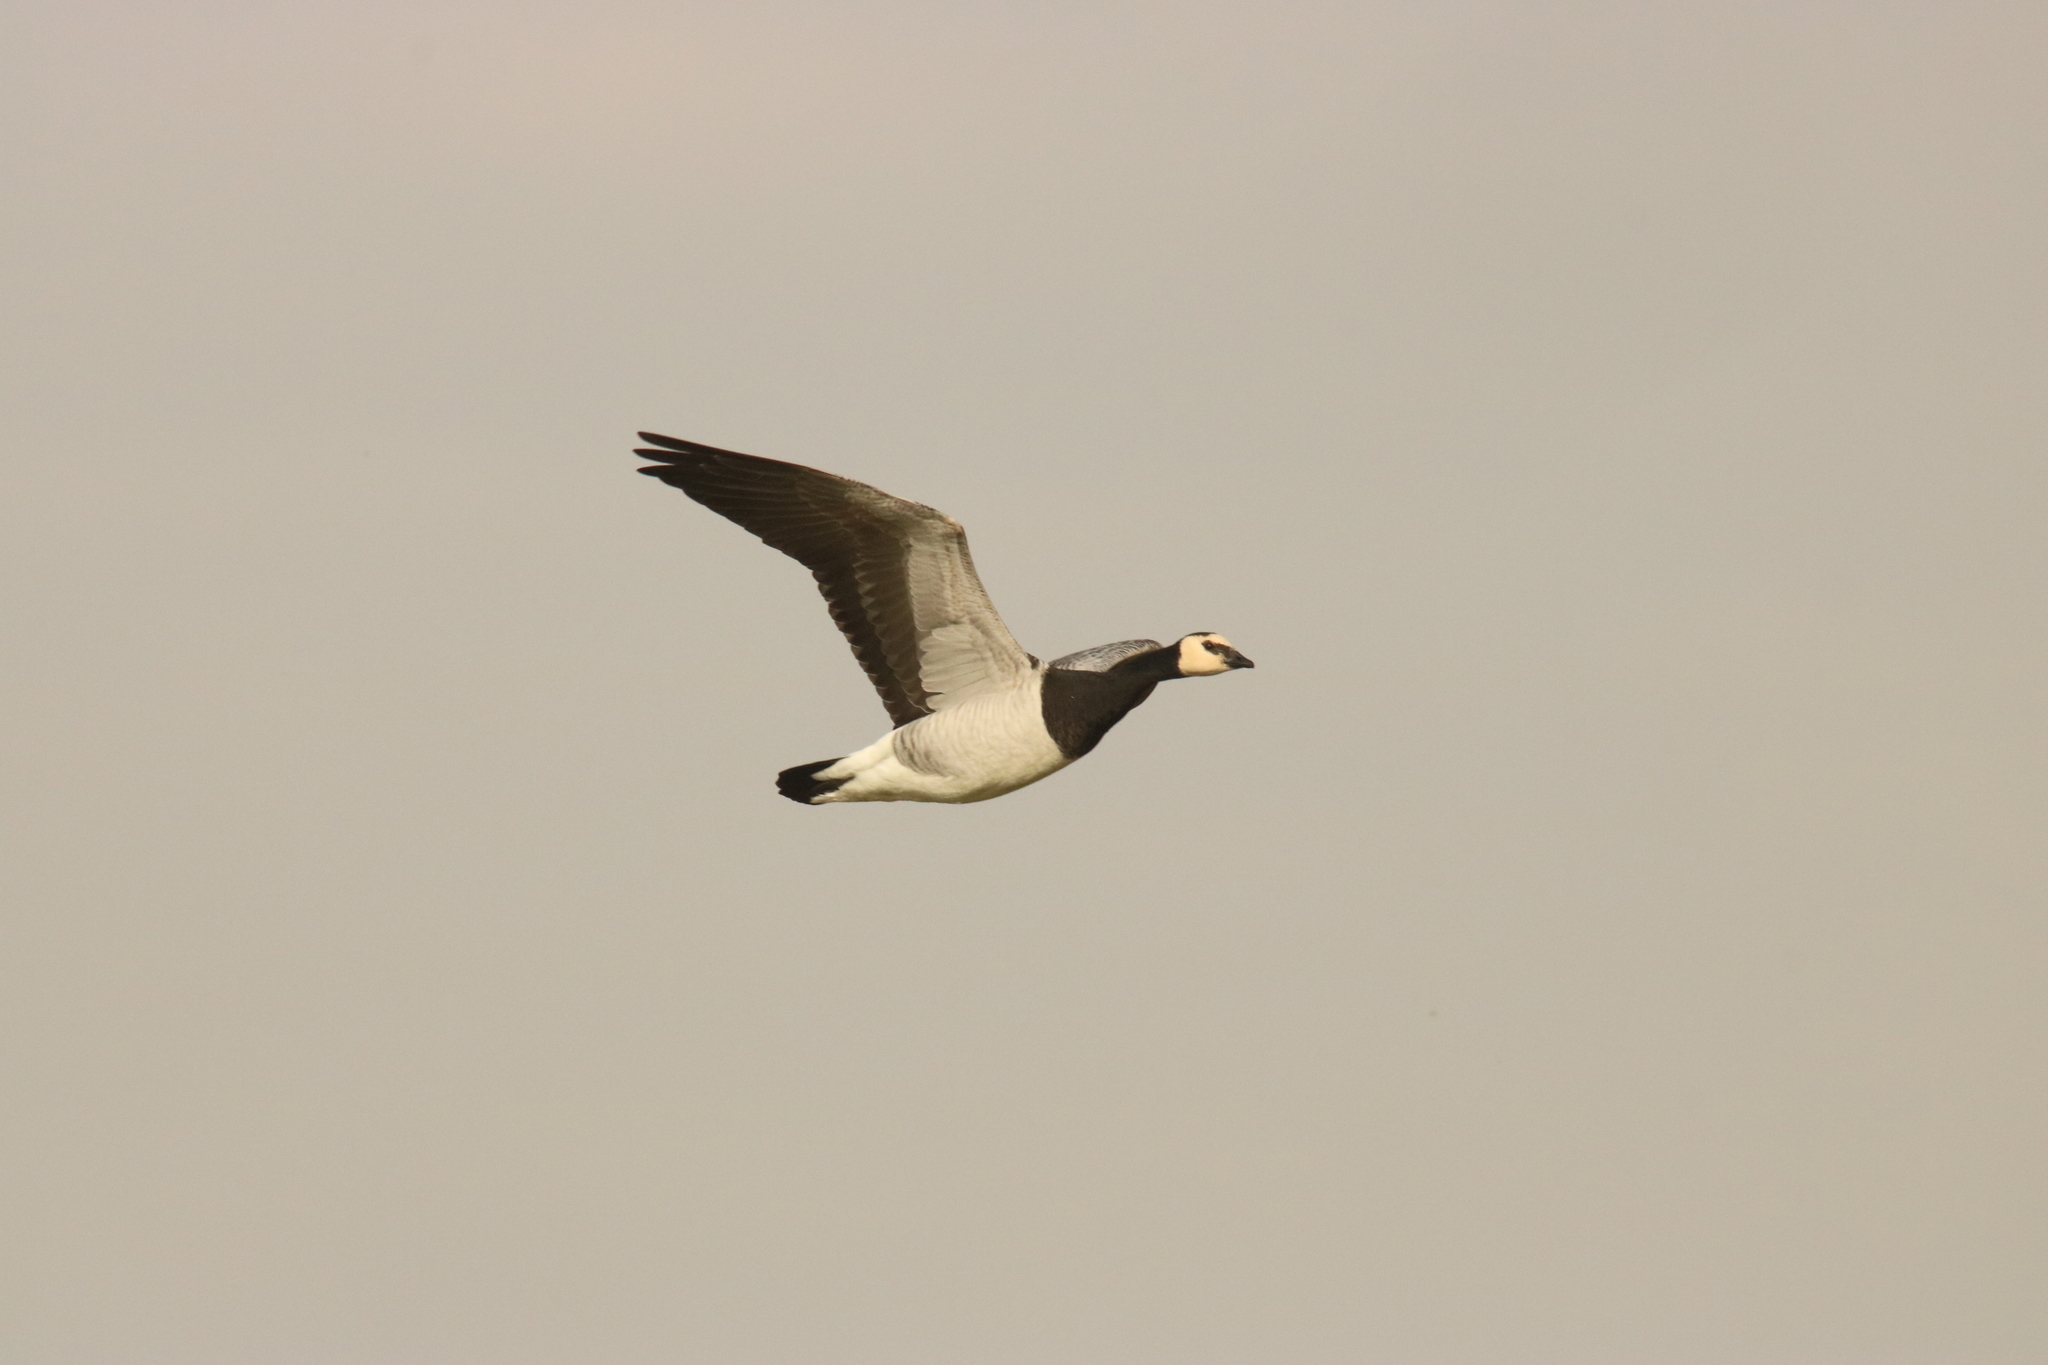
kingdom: Animalia
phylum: Chordata
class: Aves
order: Anseriformes
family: Anatidae
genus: Branta
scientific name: Branta leucopsis
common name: Barnacle goose
